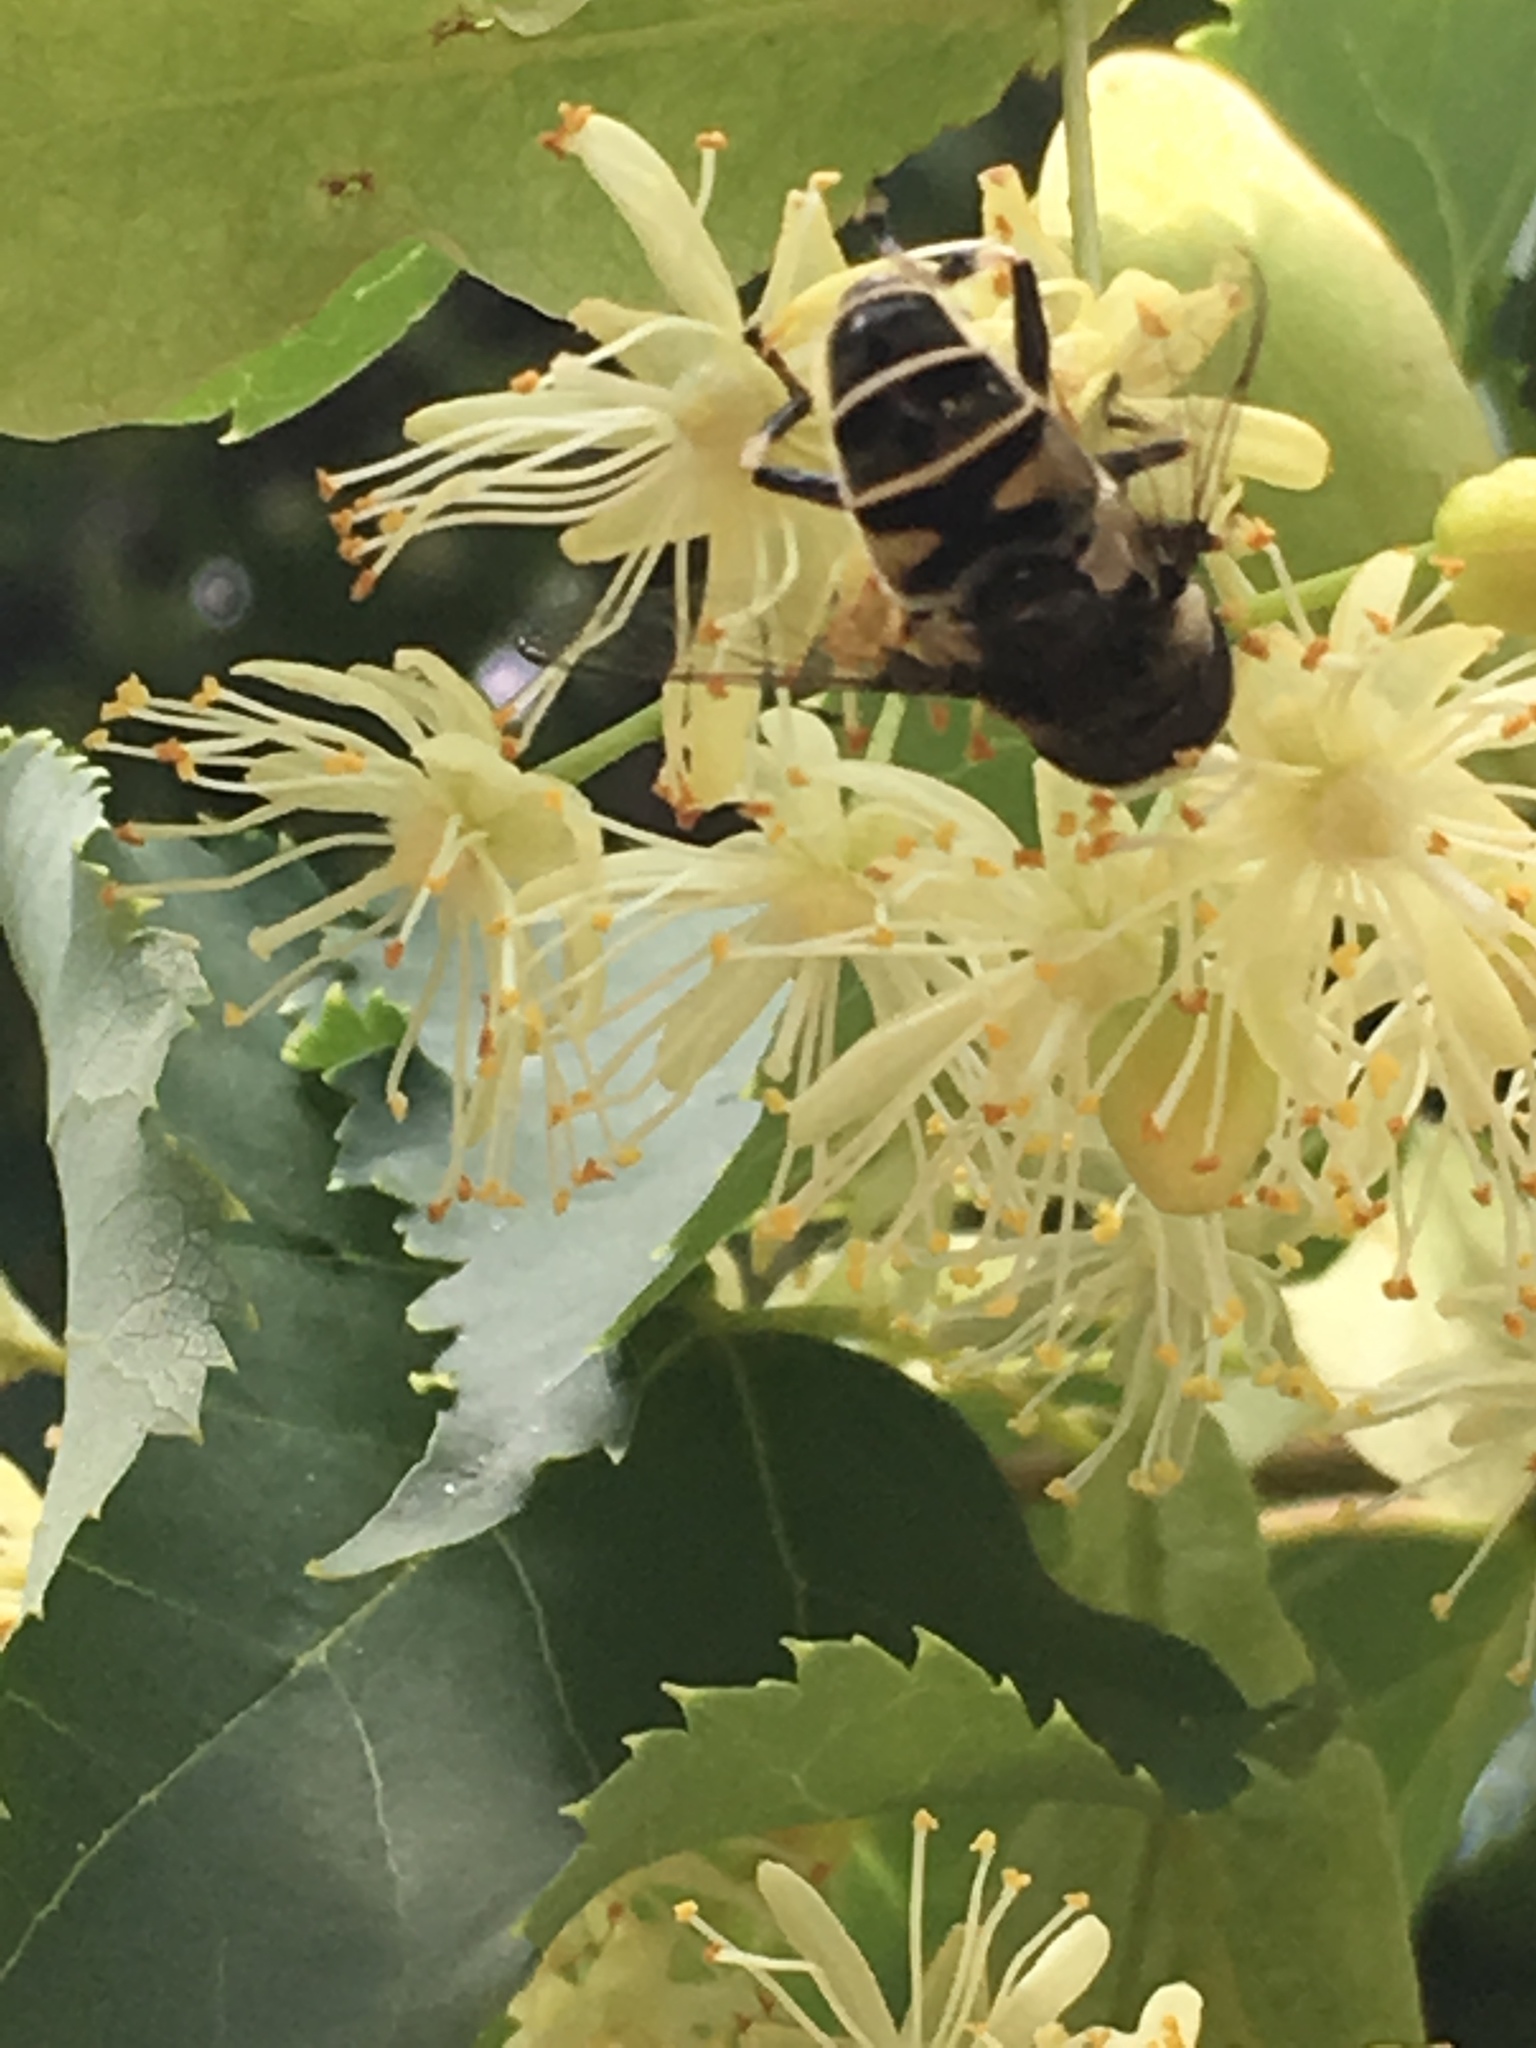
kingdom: Animalia
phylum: Arthropoda
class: Insecta
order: Diptera
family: Syrphidae
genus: Eristalis
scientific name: Eristalis dimidiata
